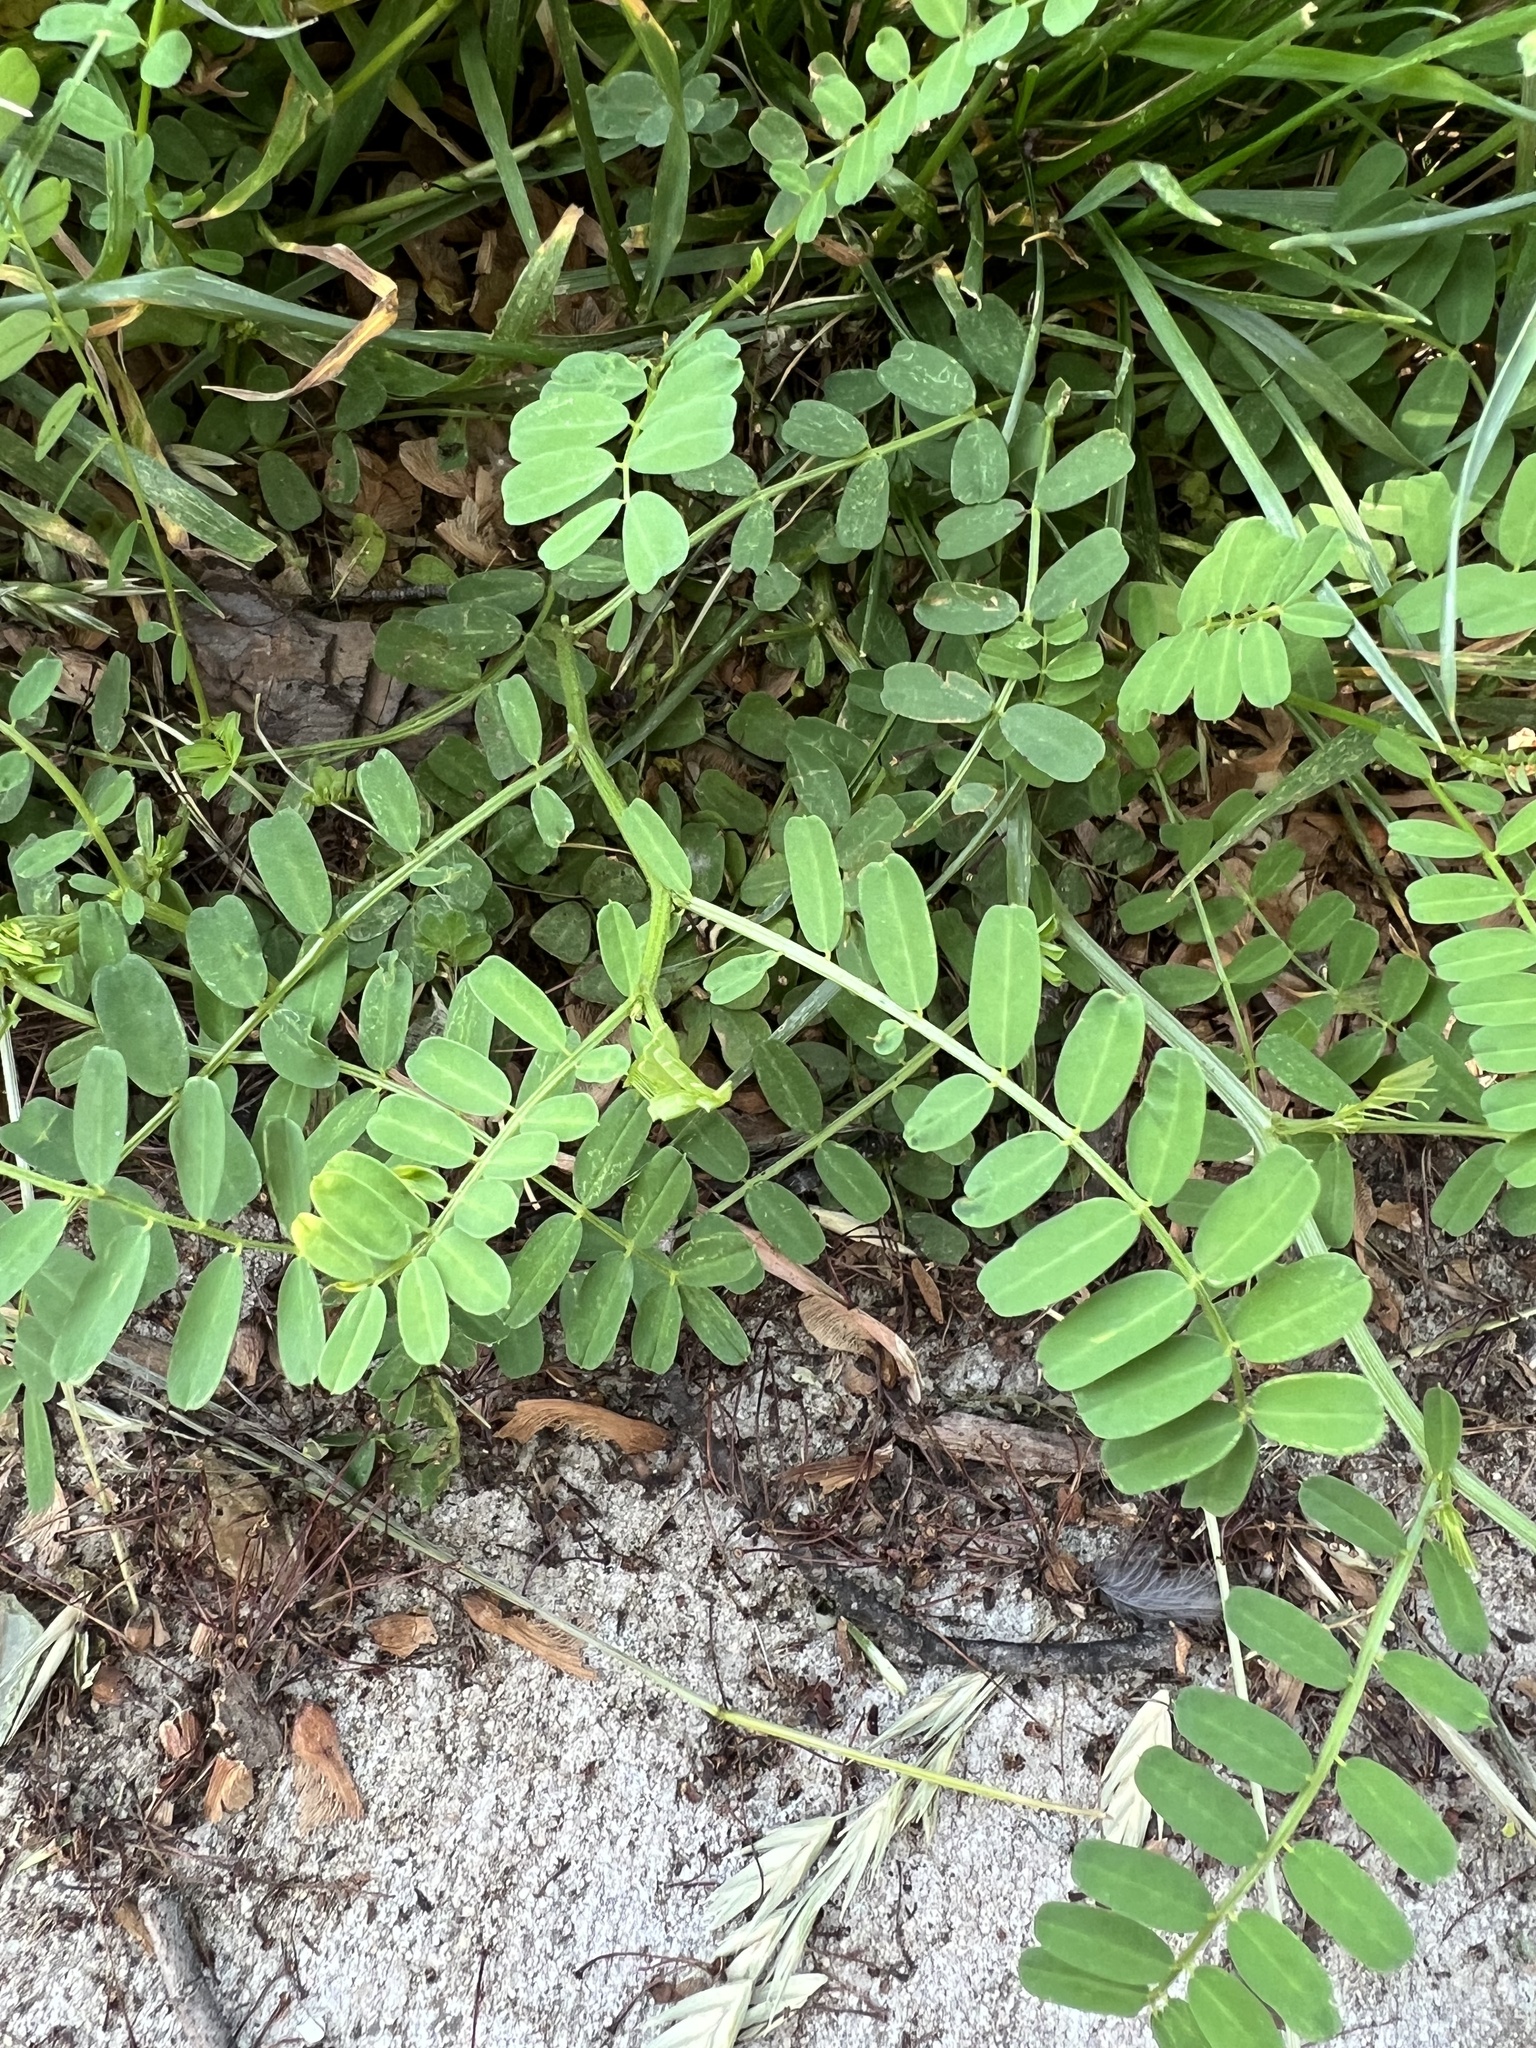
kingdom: Plantae
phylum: Tracheophyta
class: Magnoliopsida
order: Fabales
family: Fabaceae
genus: Coronilla
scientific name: Coronilla varia
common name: Crownvetch
